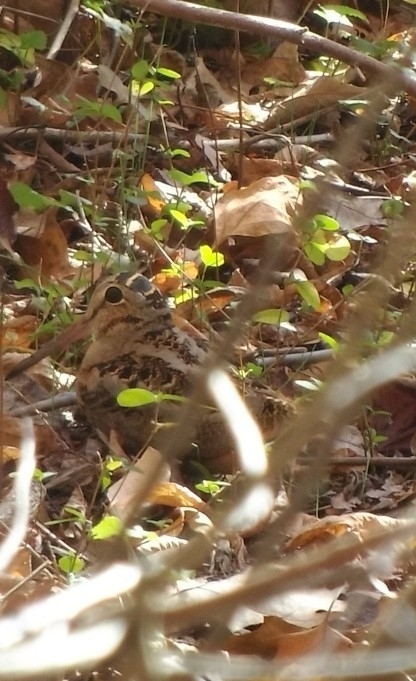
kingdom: Animalia
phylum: Chordata
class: Aves
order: Charadriiformes
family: Scolopacidae
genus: Scolopax
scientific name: Scolopax minor
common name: American woodcock
